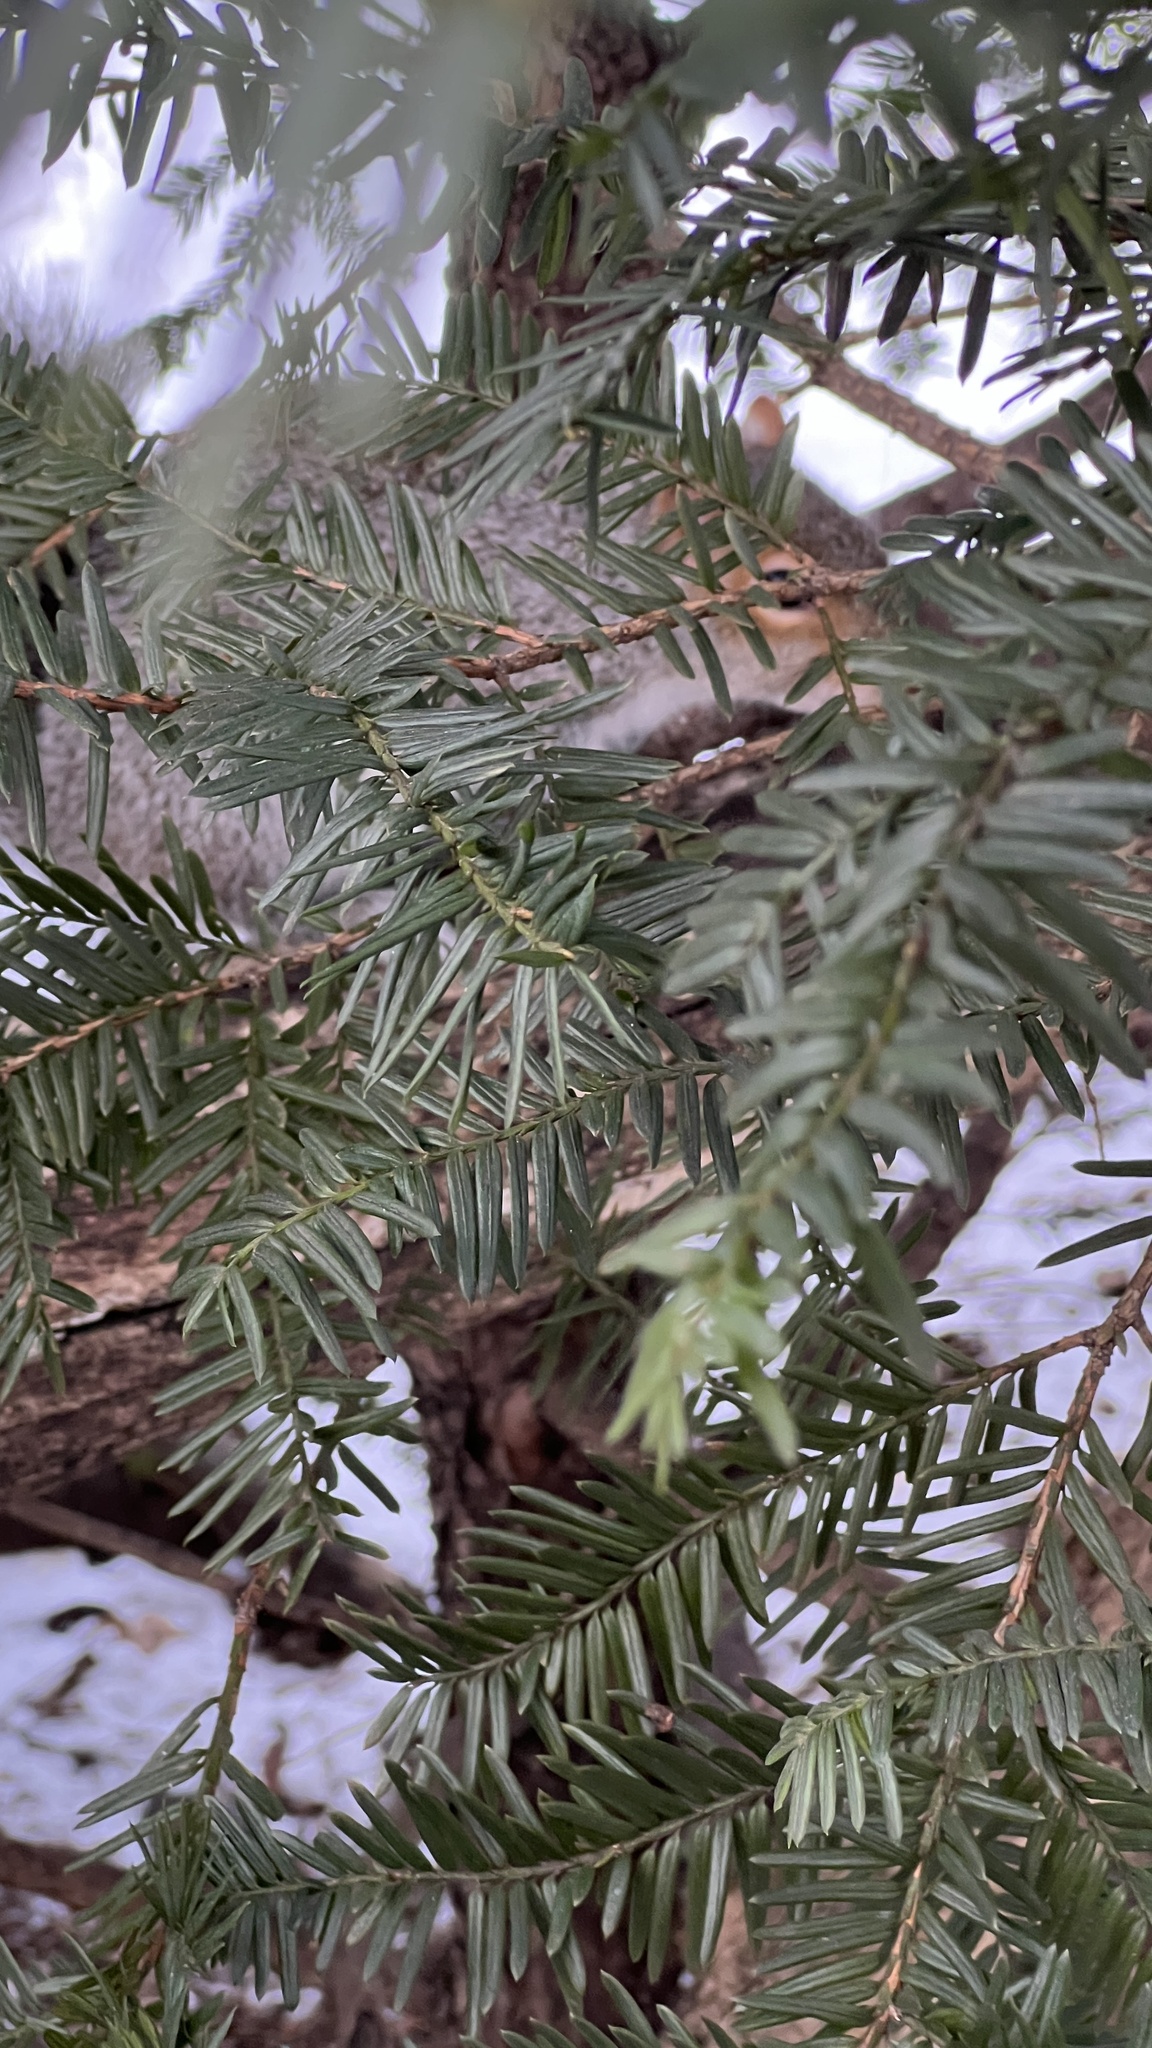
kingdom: Animalia
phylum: Chordata
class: Mammalia
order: Rodentia
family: Sciuridae
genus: Sciurus
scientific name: Sciurus carolinensis
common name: Eastern gray squirrel
